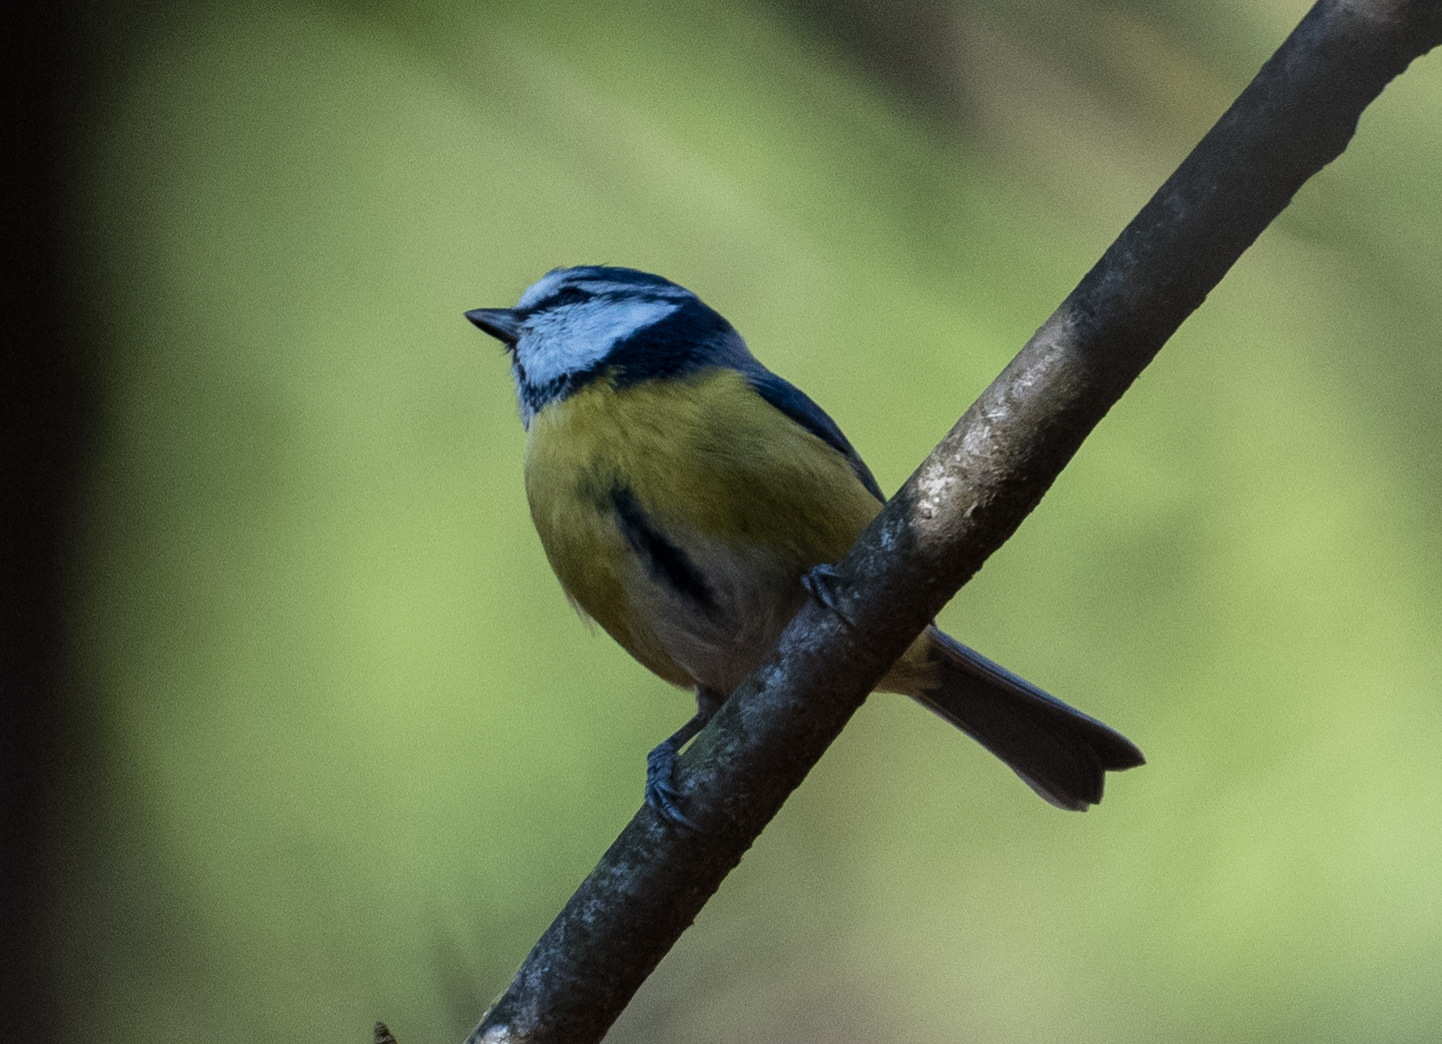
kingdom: Animalia
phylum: Chordata
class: Aves
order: Passeriformes
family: Paridae
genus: Cyanistes
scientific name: Cyanistes caeruleus
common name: Eurasian blue tit
